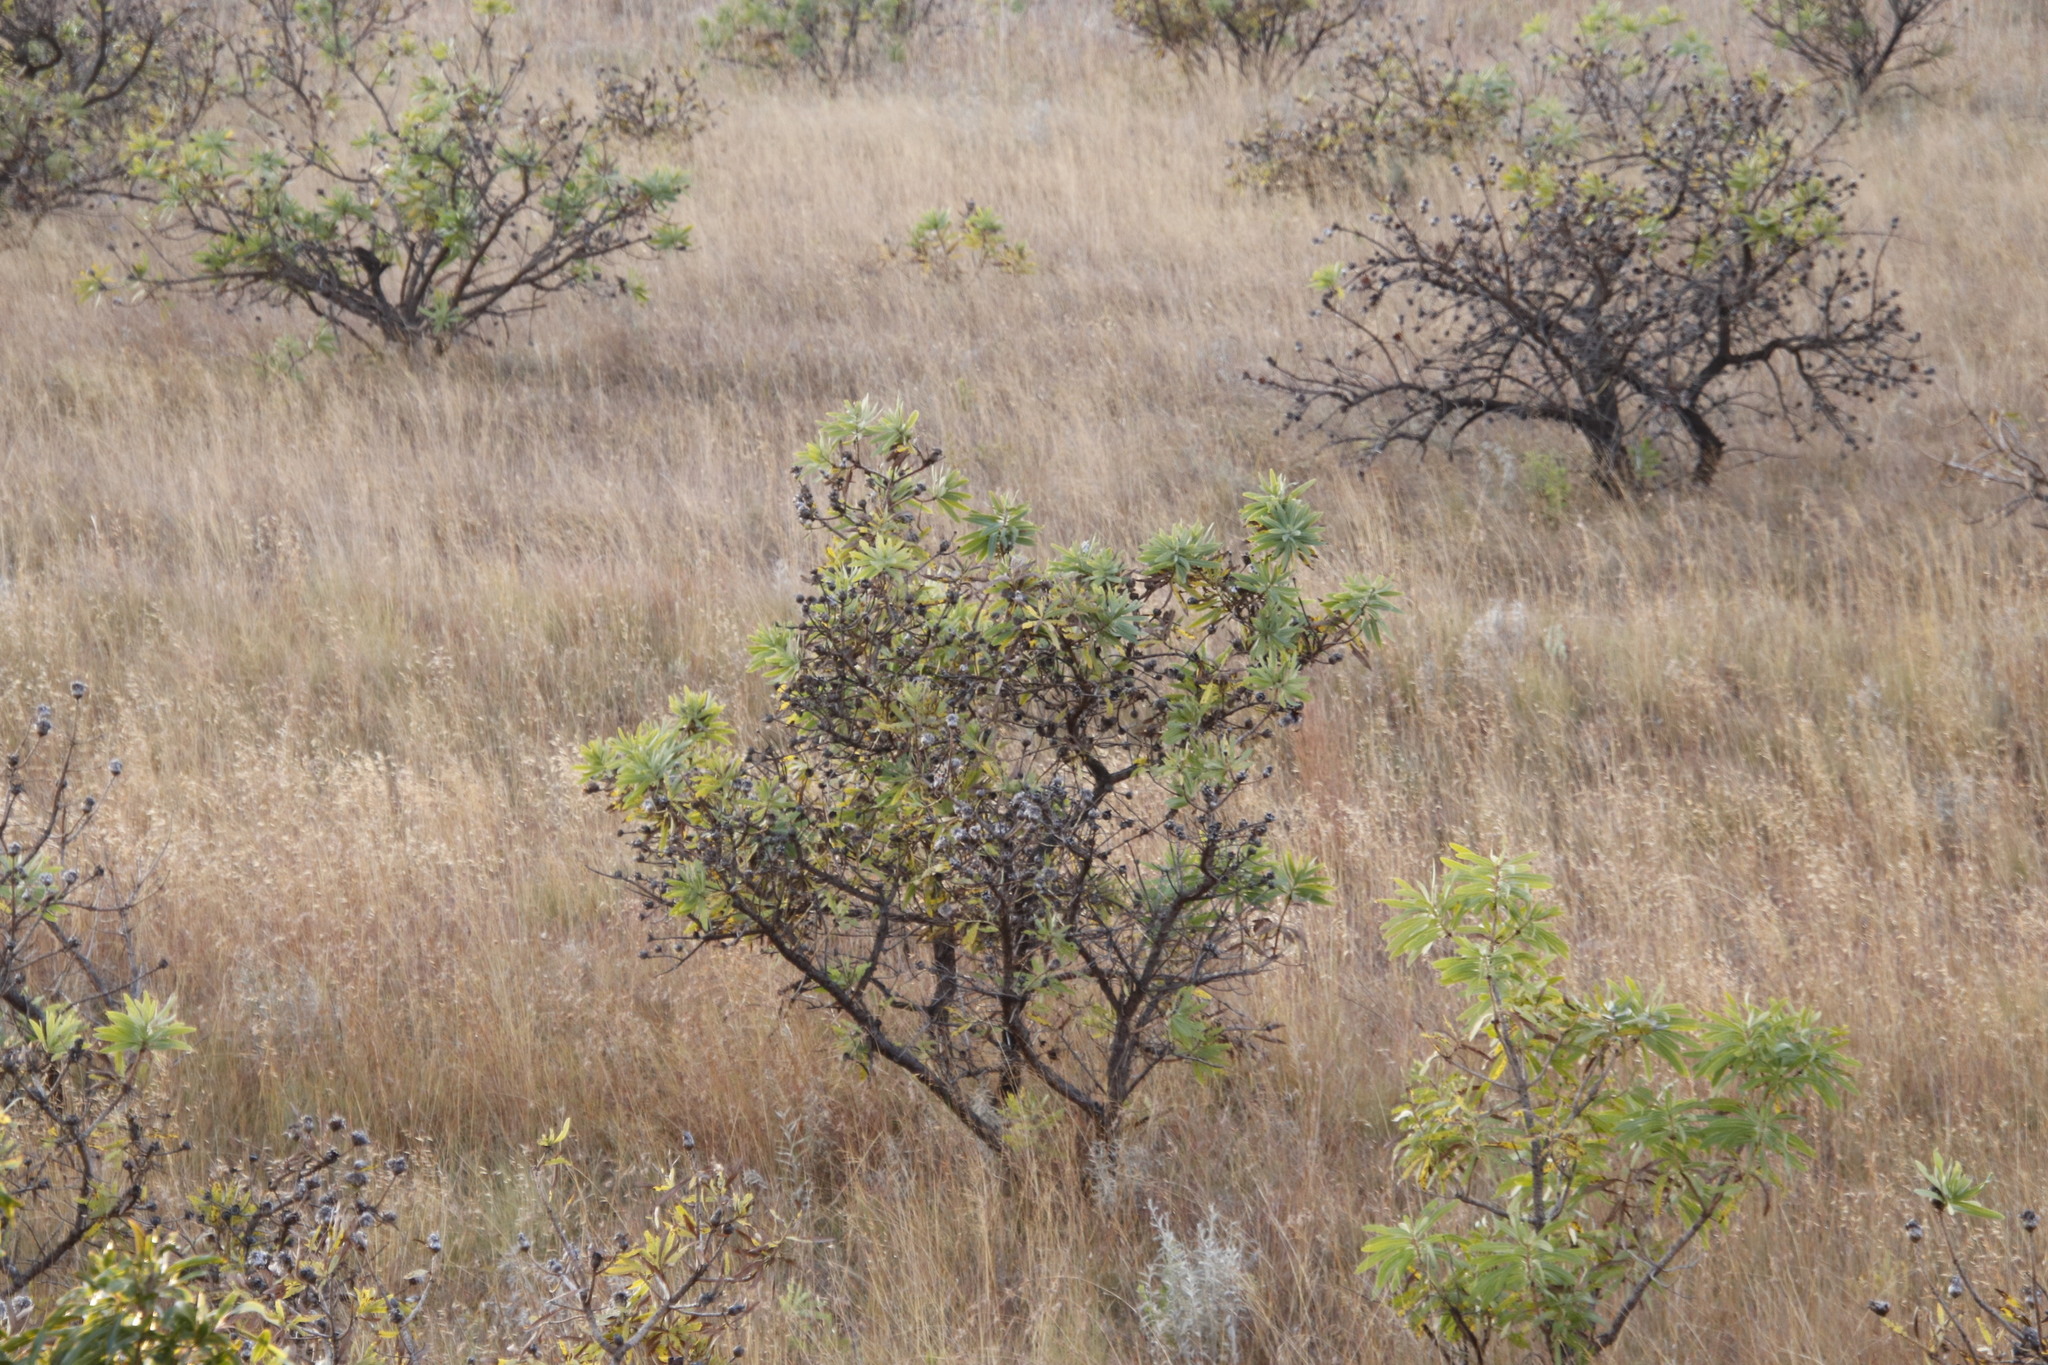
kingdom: Plantae
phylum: Tracheophyta
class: Magnoliopsida
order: Proteales
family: Proteaceae
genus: Protea
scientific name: Protea caffra
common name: Common sugarbush
